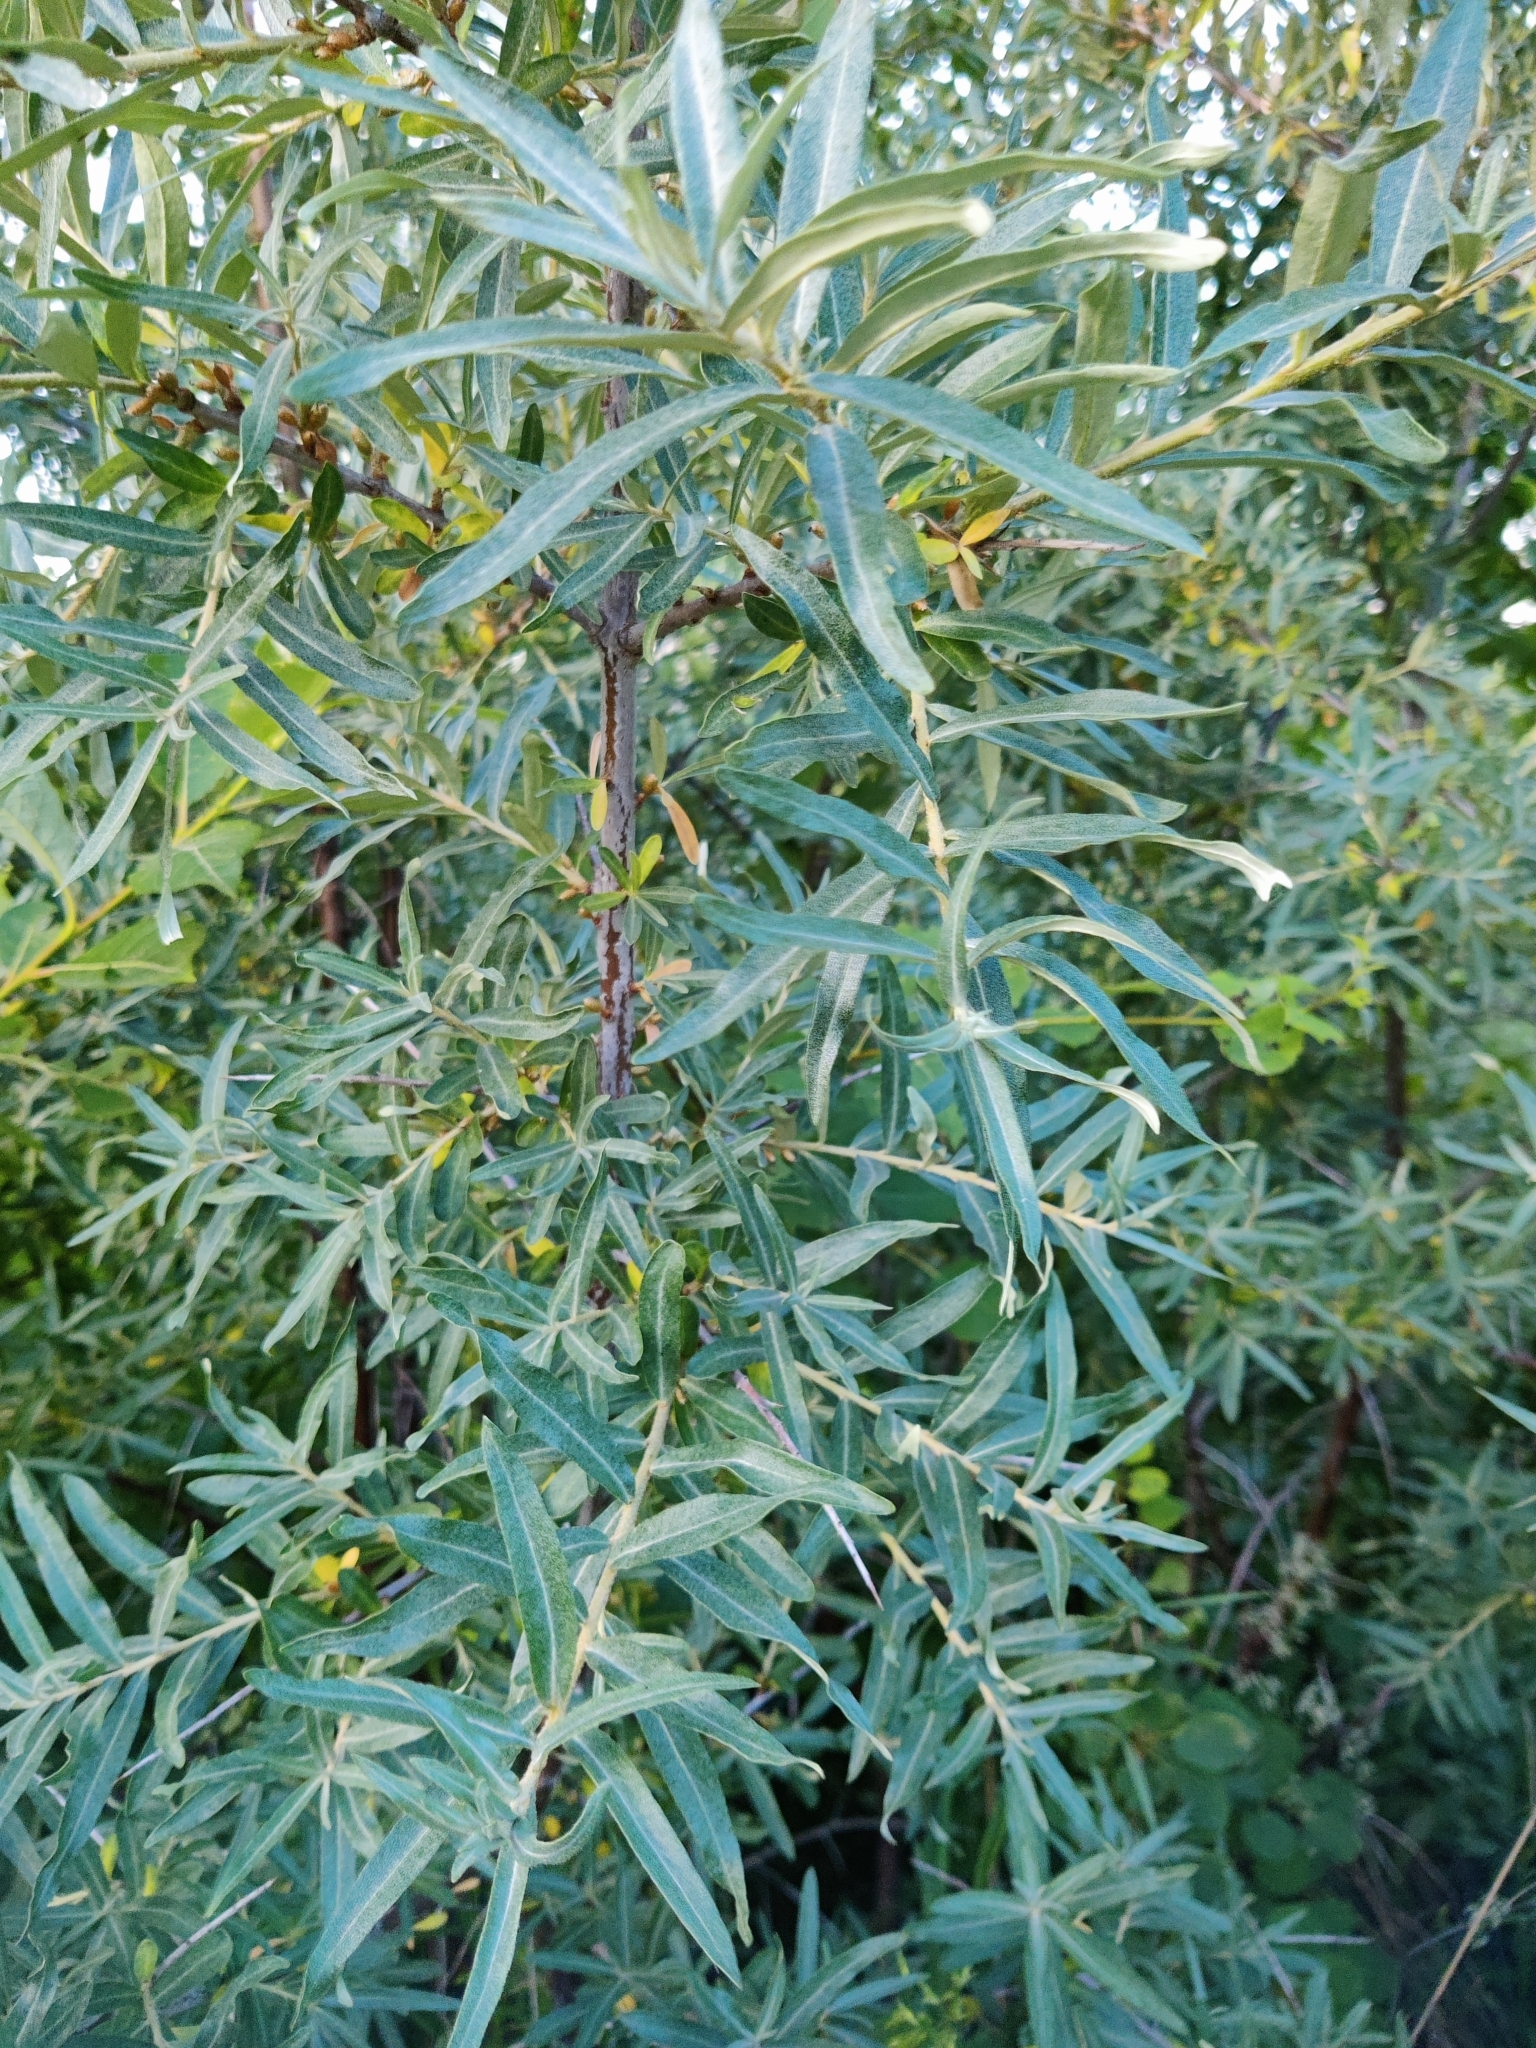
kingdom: Plantae
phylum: Tracheophyta
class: Magnoliopsida
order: Rosales
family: Elaeagnaceae
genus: Hippophae
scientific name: Hippophae rhamnoides
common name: Sea-buckthorn
